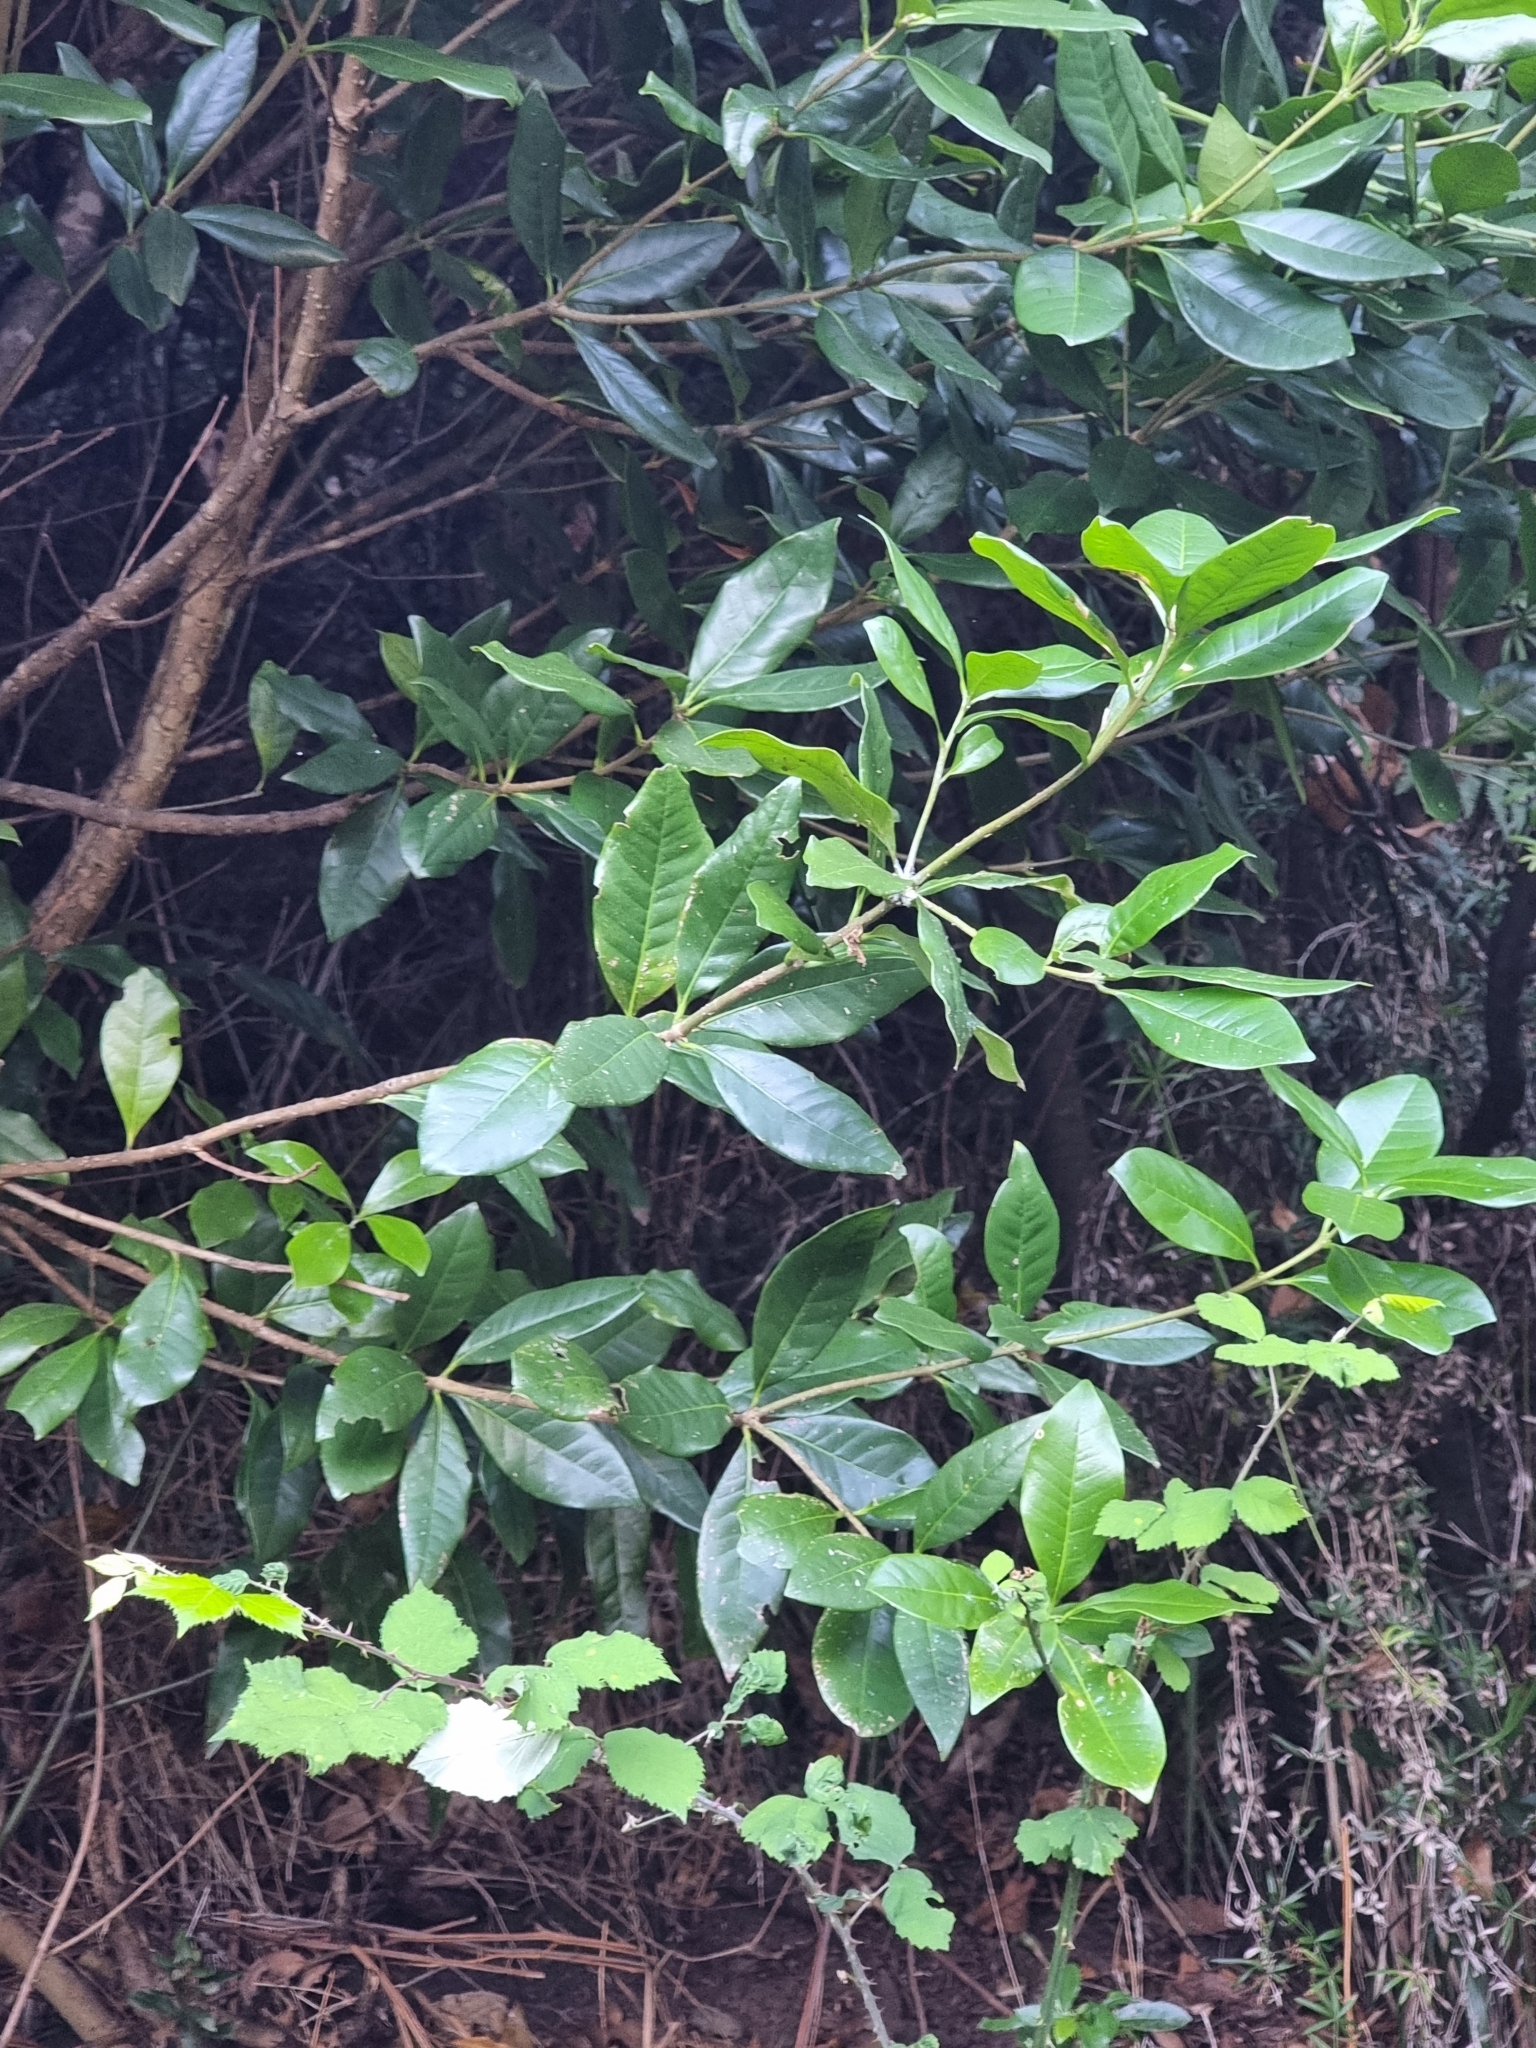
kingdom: Plantae
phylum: Tracheophyta
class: Magnoliopsida
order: Lamiales
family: Oleaceae
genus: Picconia
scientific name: Picconia excelsa
